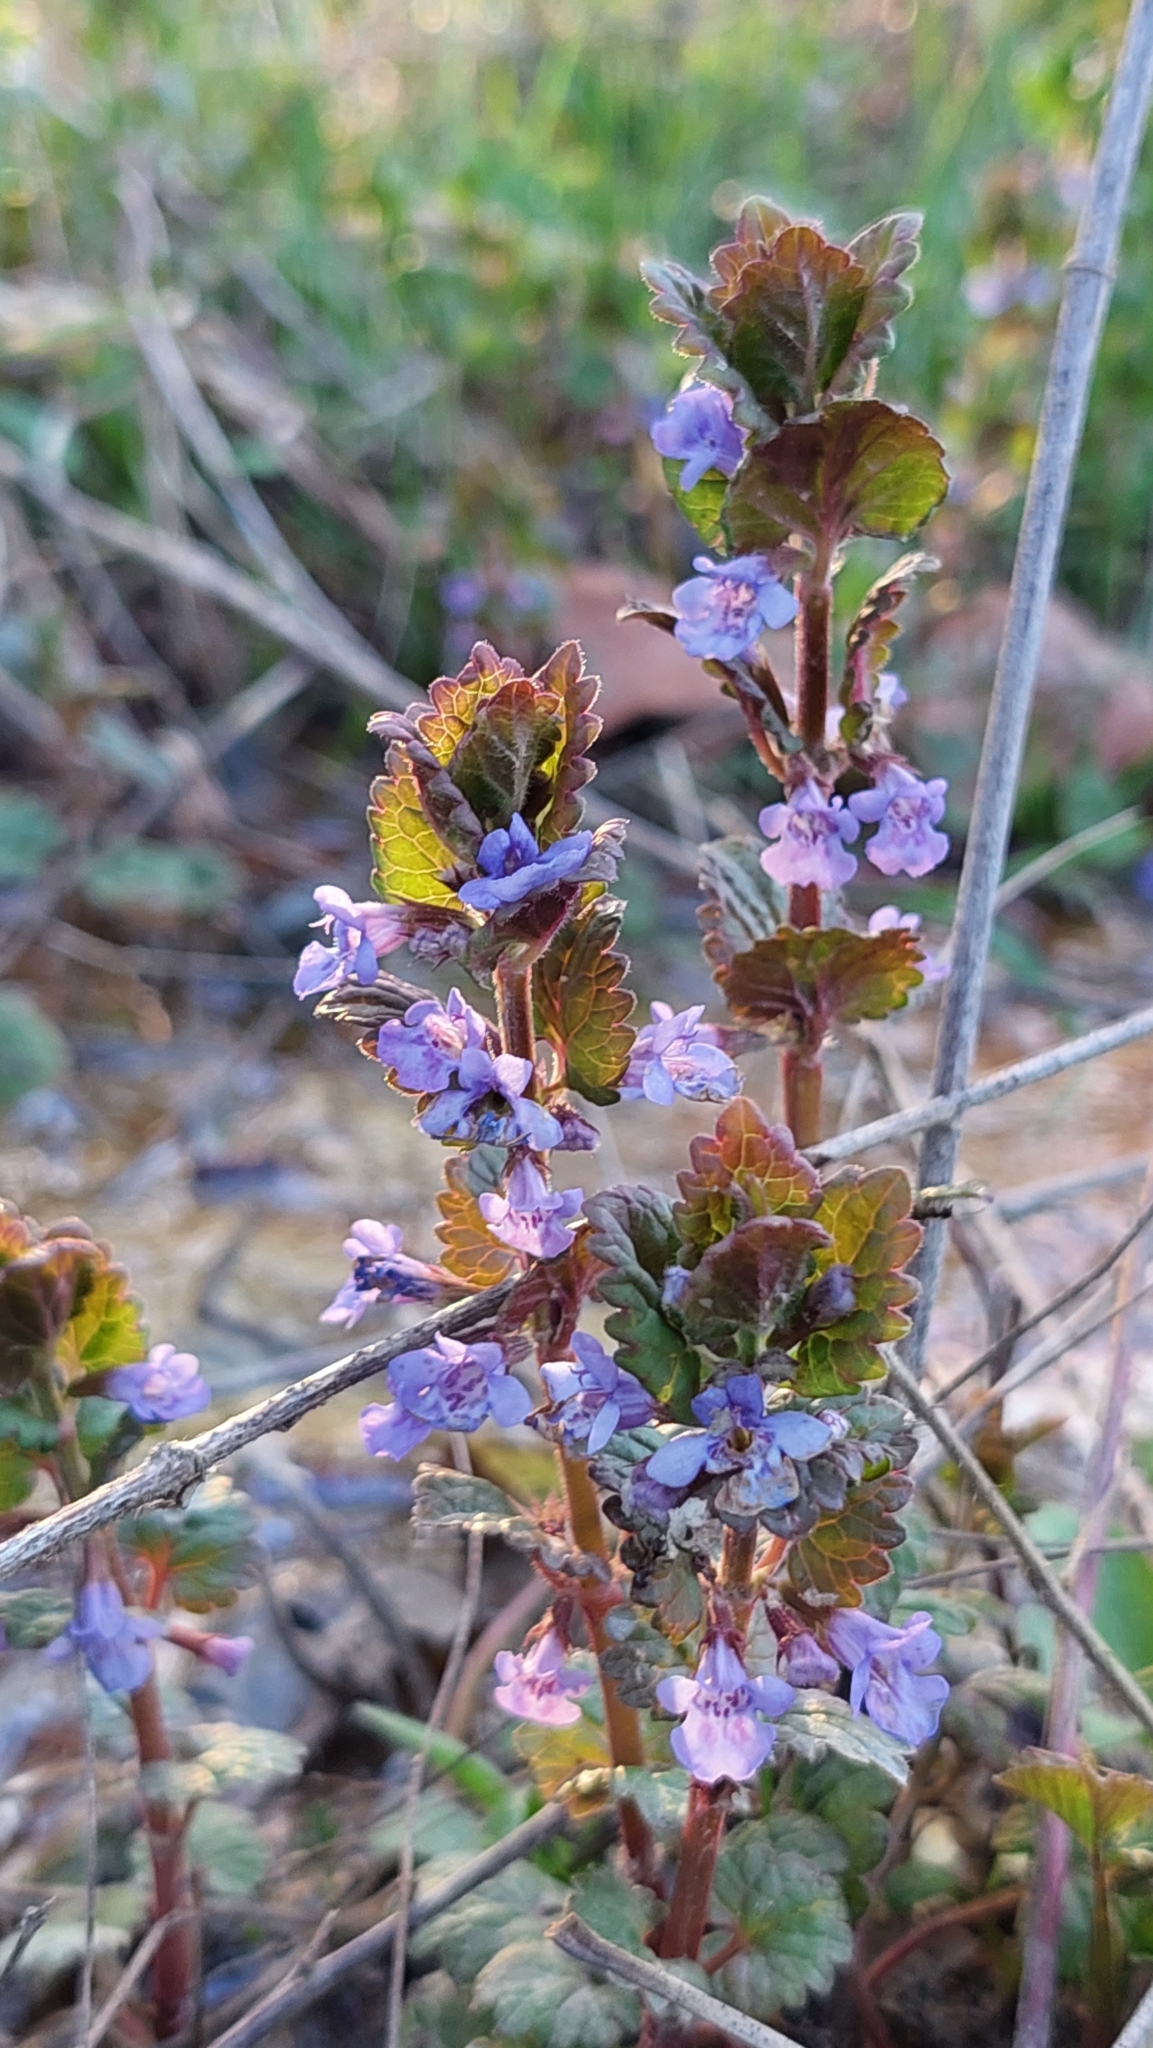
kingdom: Plantae
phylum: Tracheophyta
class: Magnoliopsida
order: Lamiales
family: Lamiaceae
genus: Glechoma
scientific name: Glechoma hederacea
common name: Ground ivy
